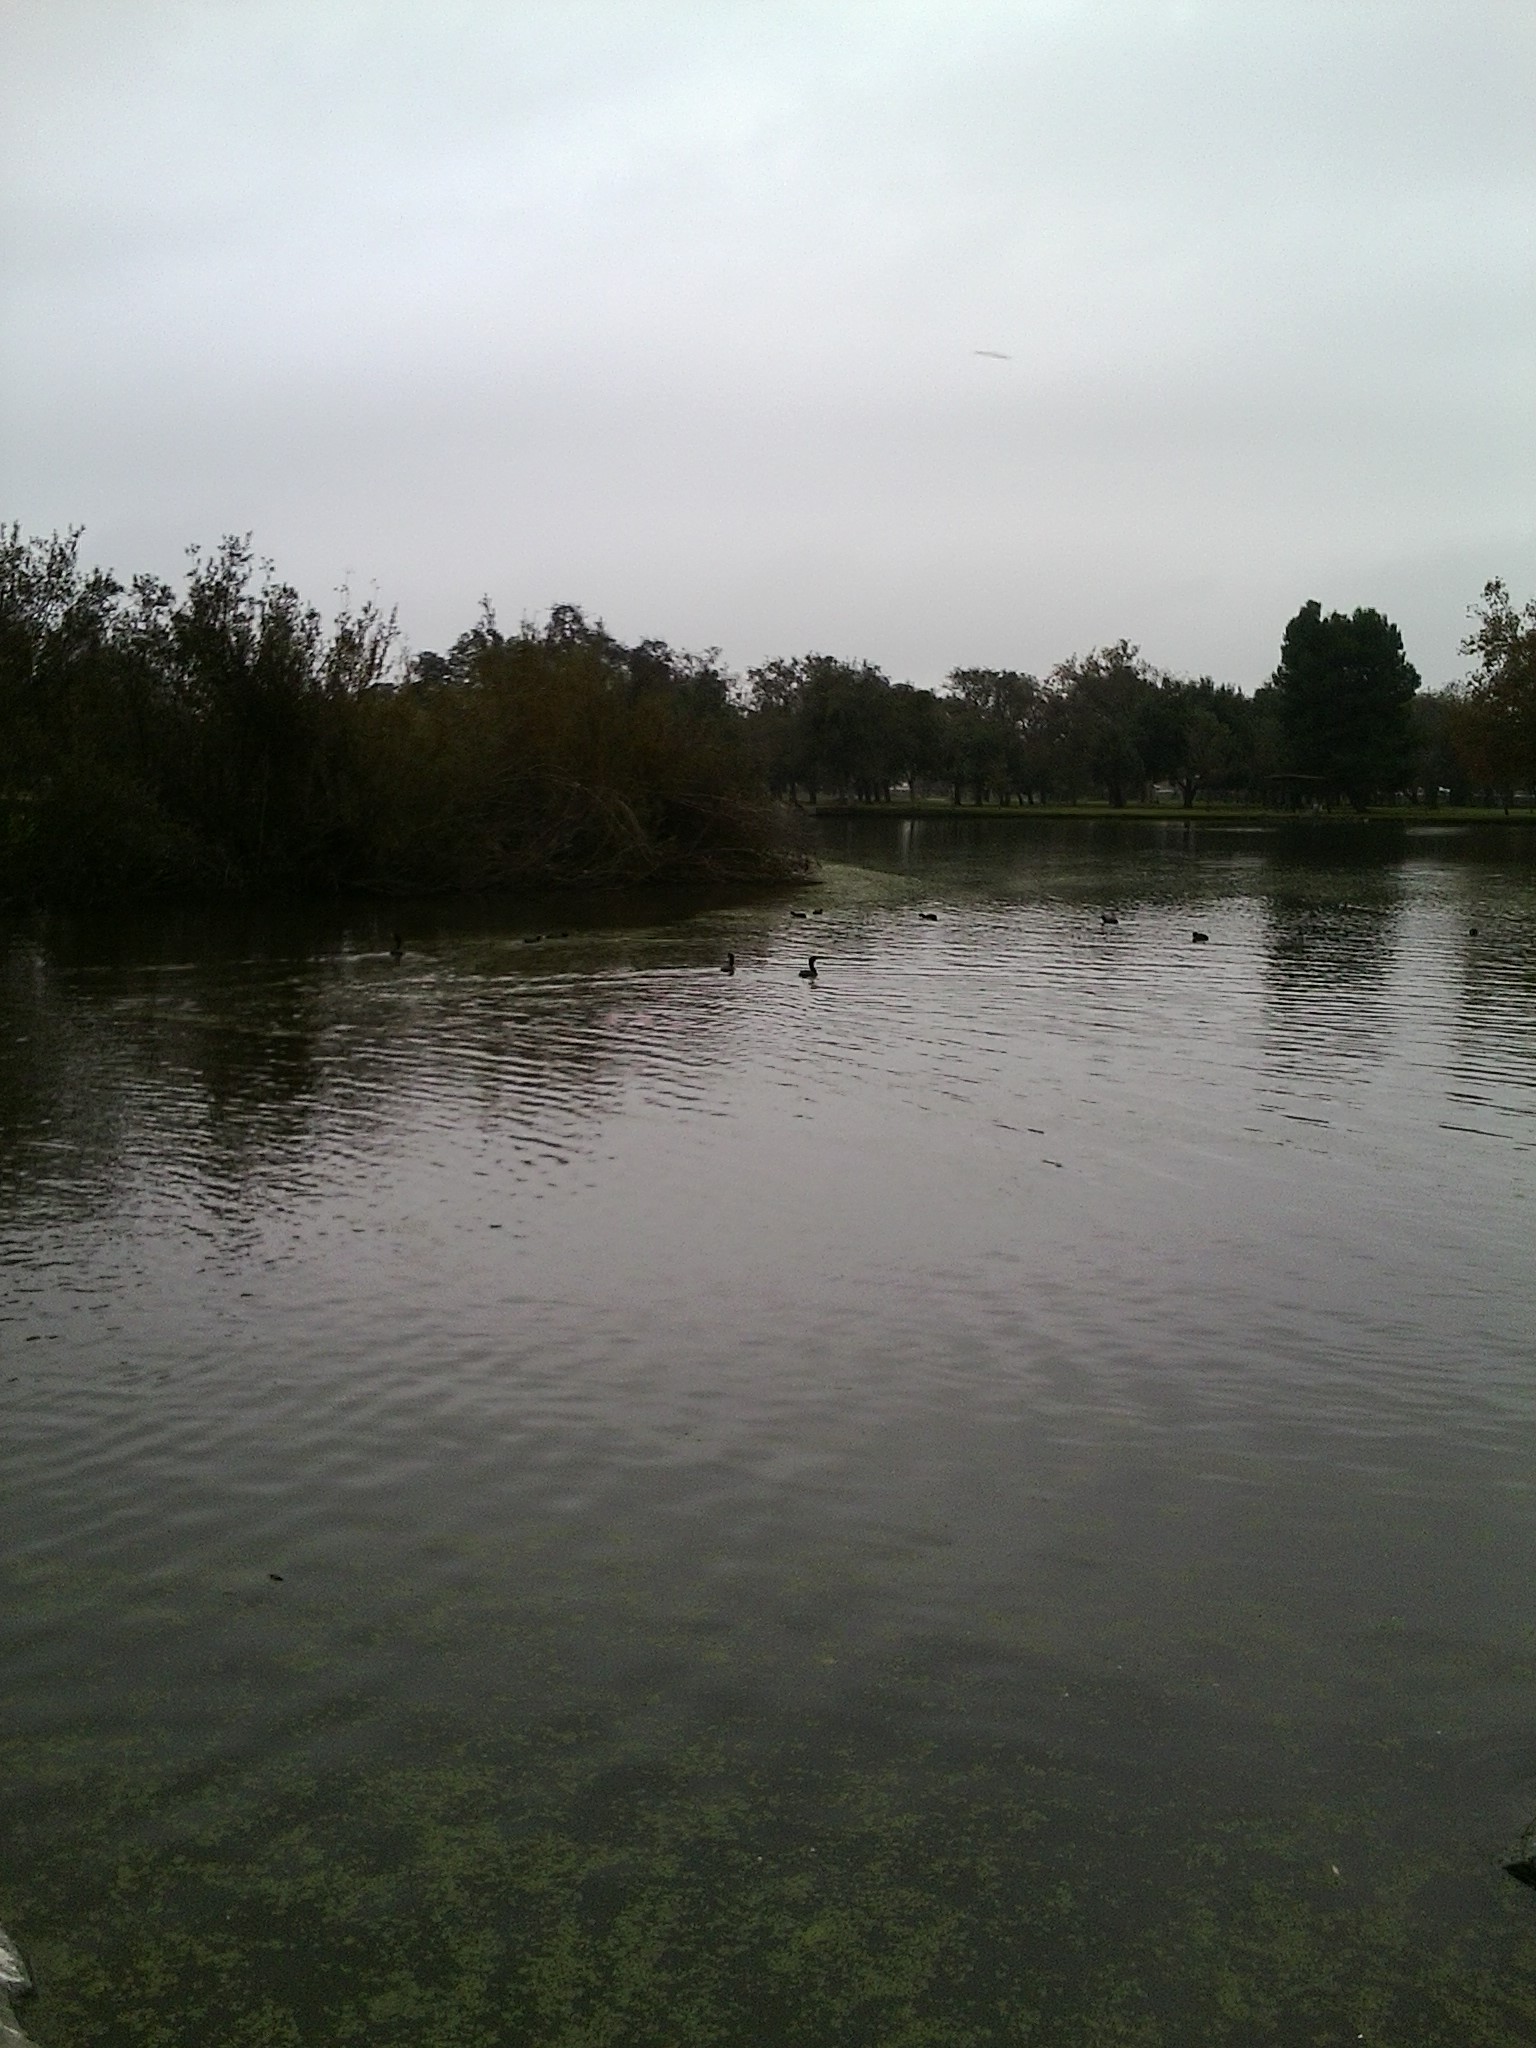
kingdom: Animalia
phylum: Chordata
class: Aves
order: Suliformes
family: Phalacrocoracidae
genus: Phalacrocorax
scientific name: Phalacrocorax auritus
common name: Double-crested cormorant
